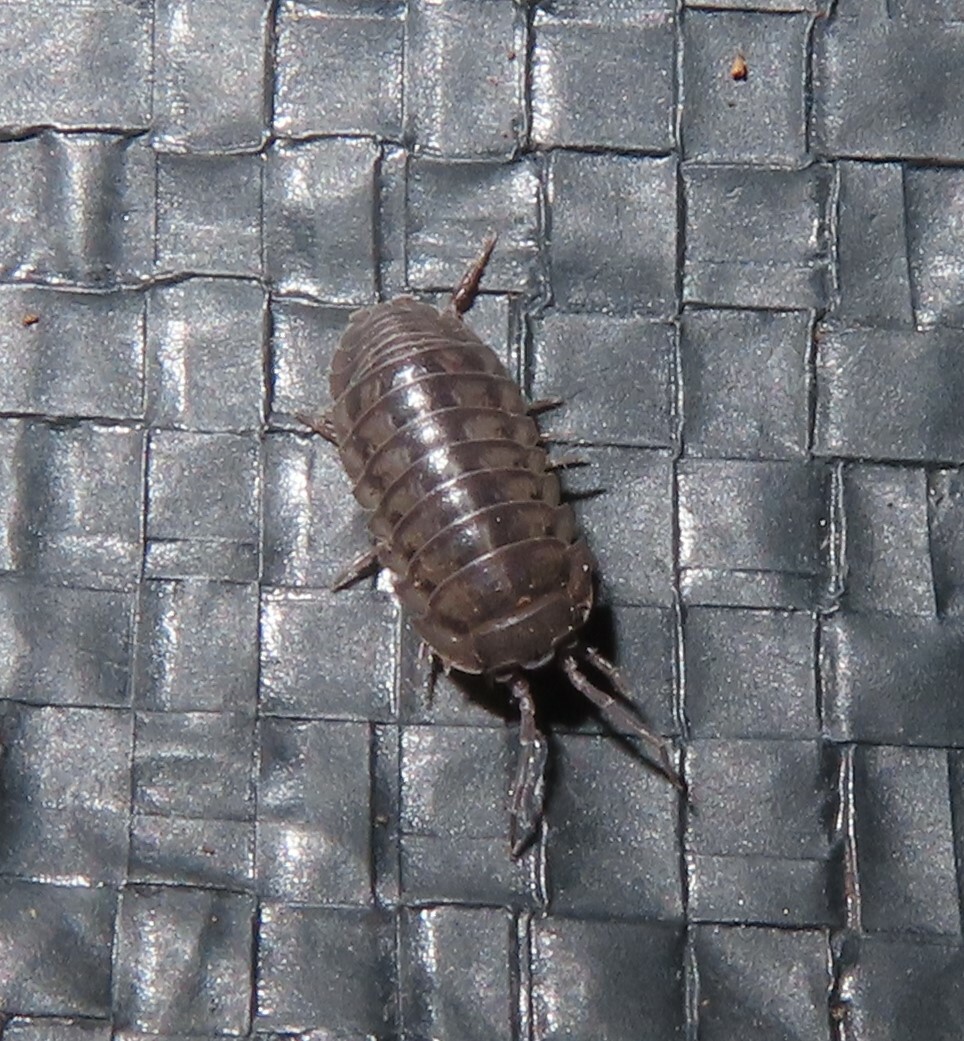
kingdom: Animalia
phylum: Arthropoda
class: Malacostraca
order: Isopoda
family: Armadillidiidae
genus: Armadillidium
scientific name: Armadillidium nasatum
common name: Isopod
